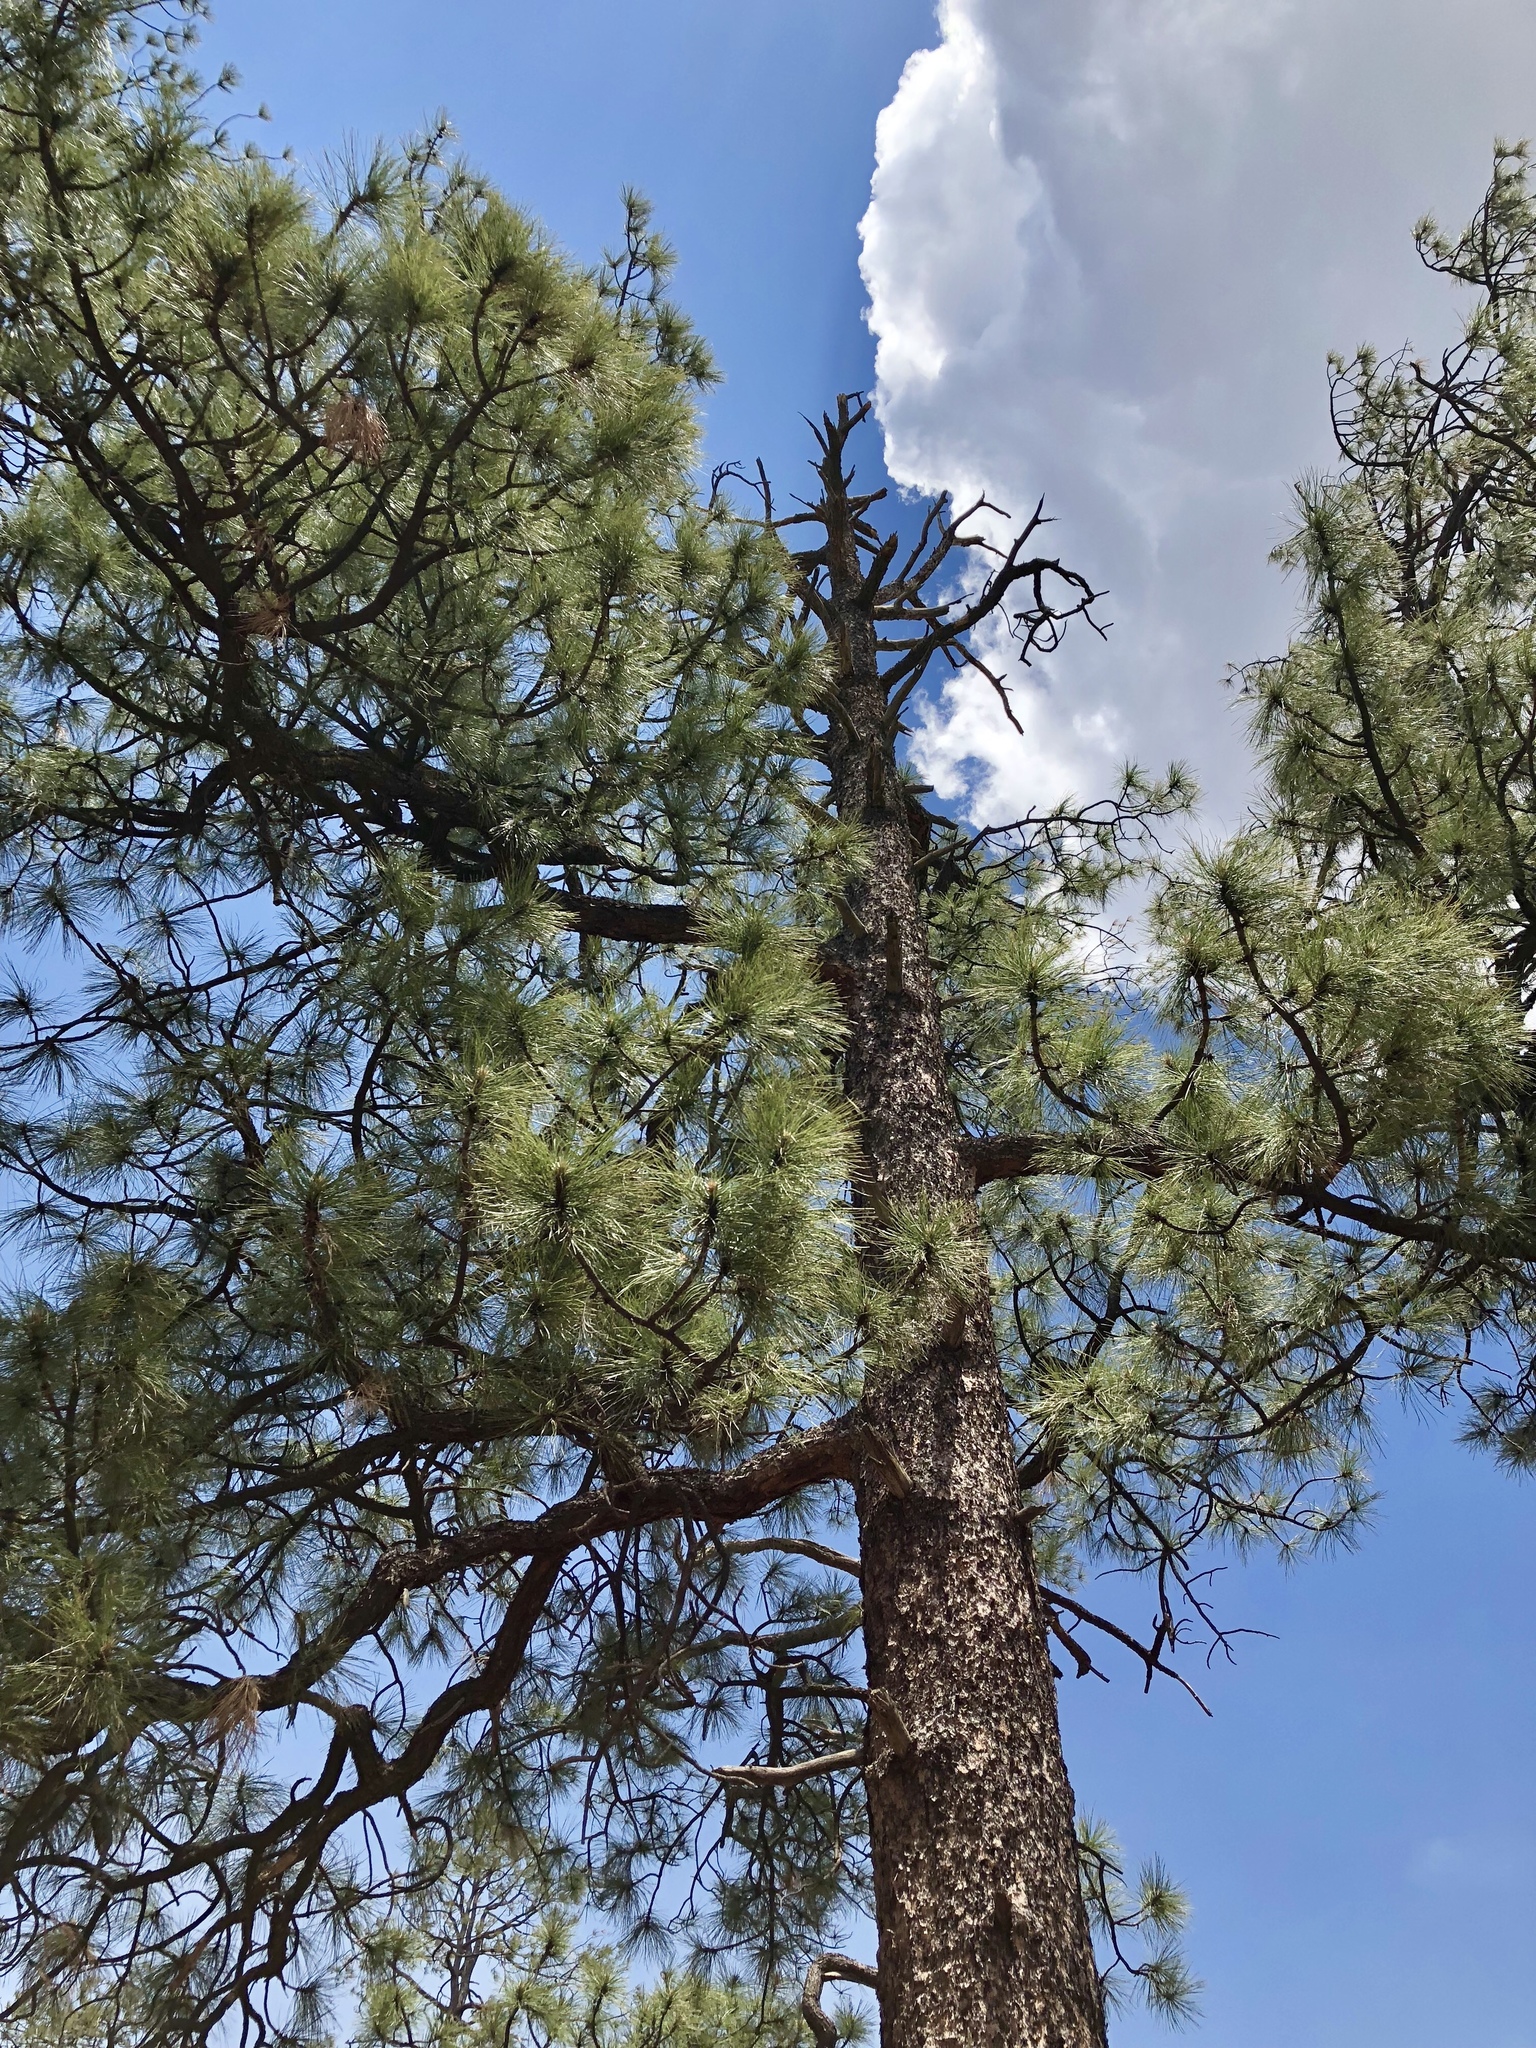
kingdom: Plantae
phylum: Tracheophyta
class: Pinopsida
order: Pinales
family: Pinaceae
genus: Pinus
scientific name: Pinus ponderosa
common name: Western yellow-pine
